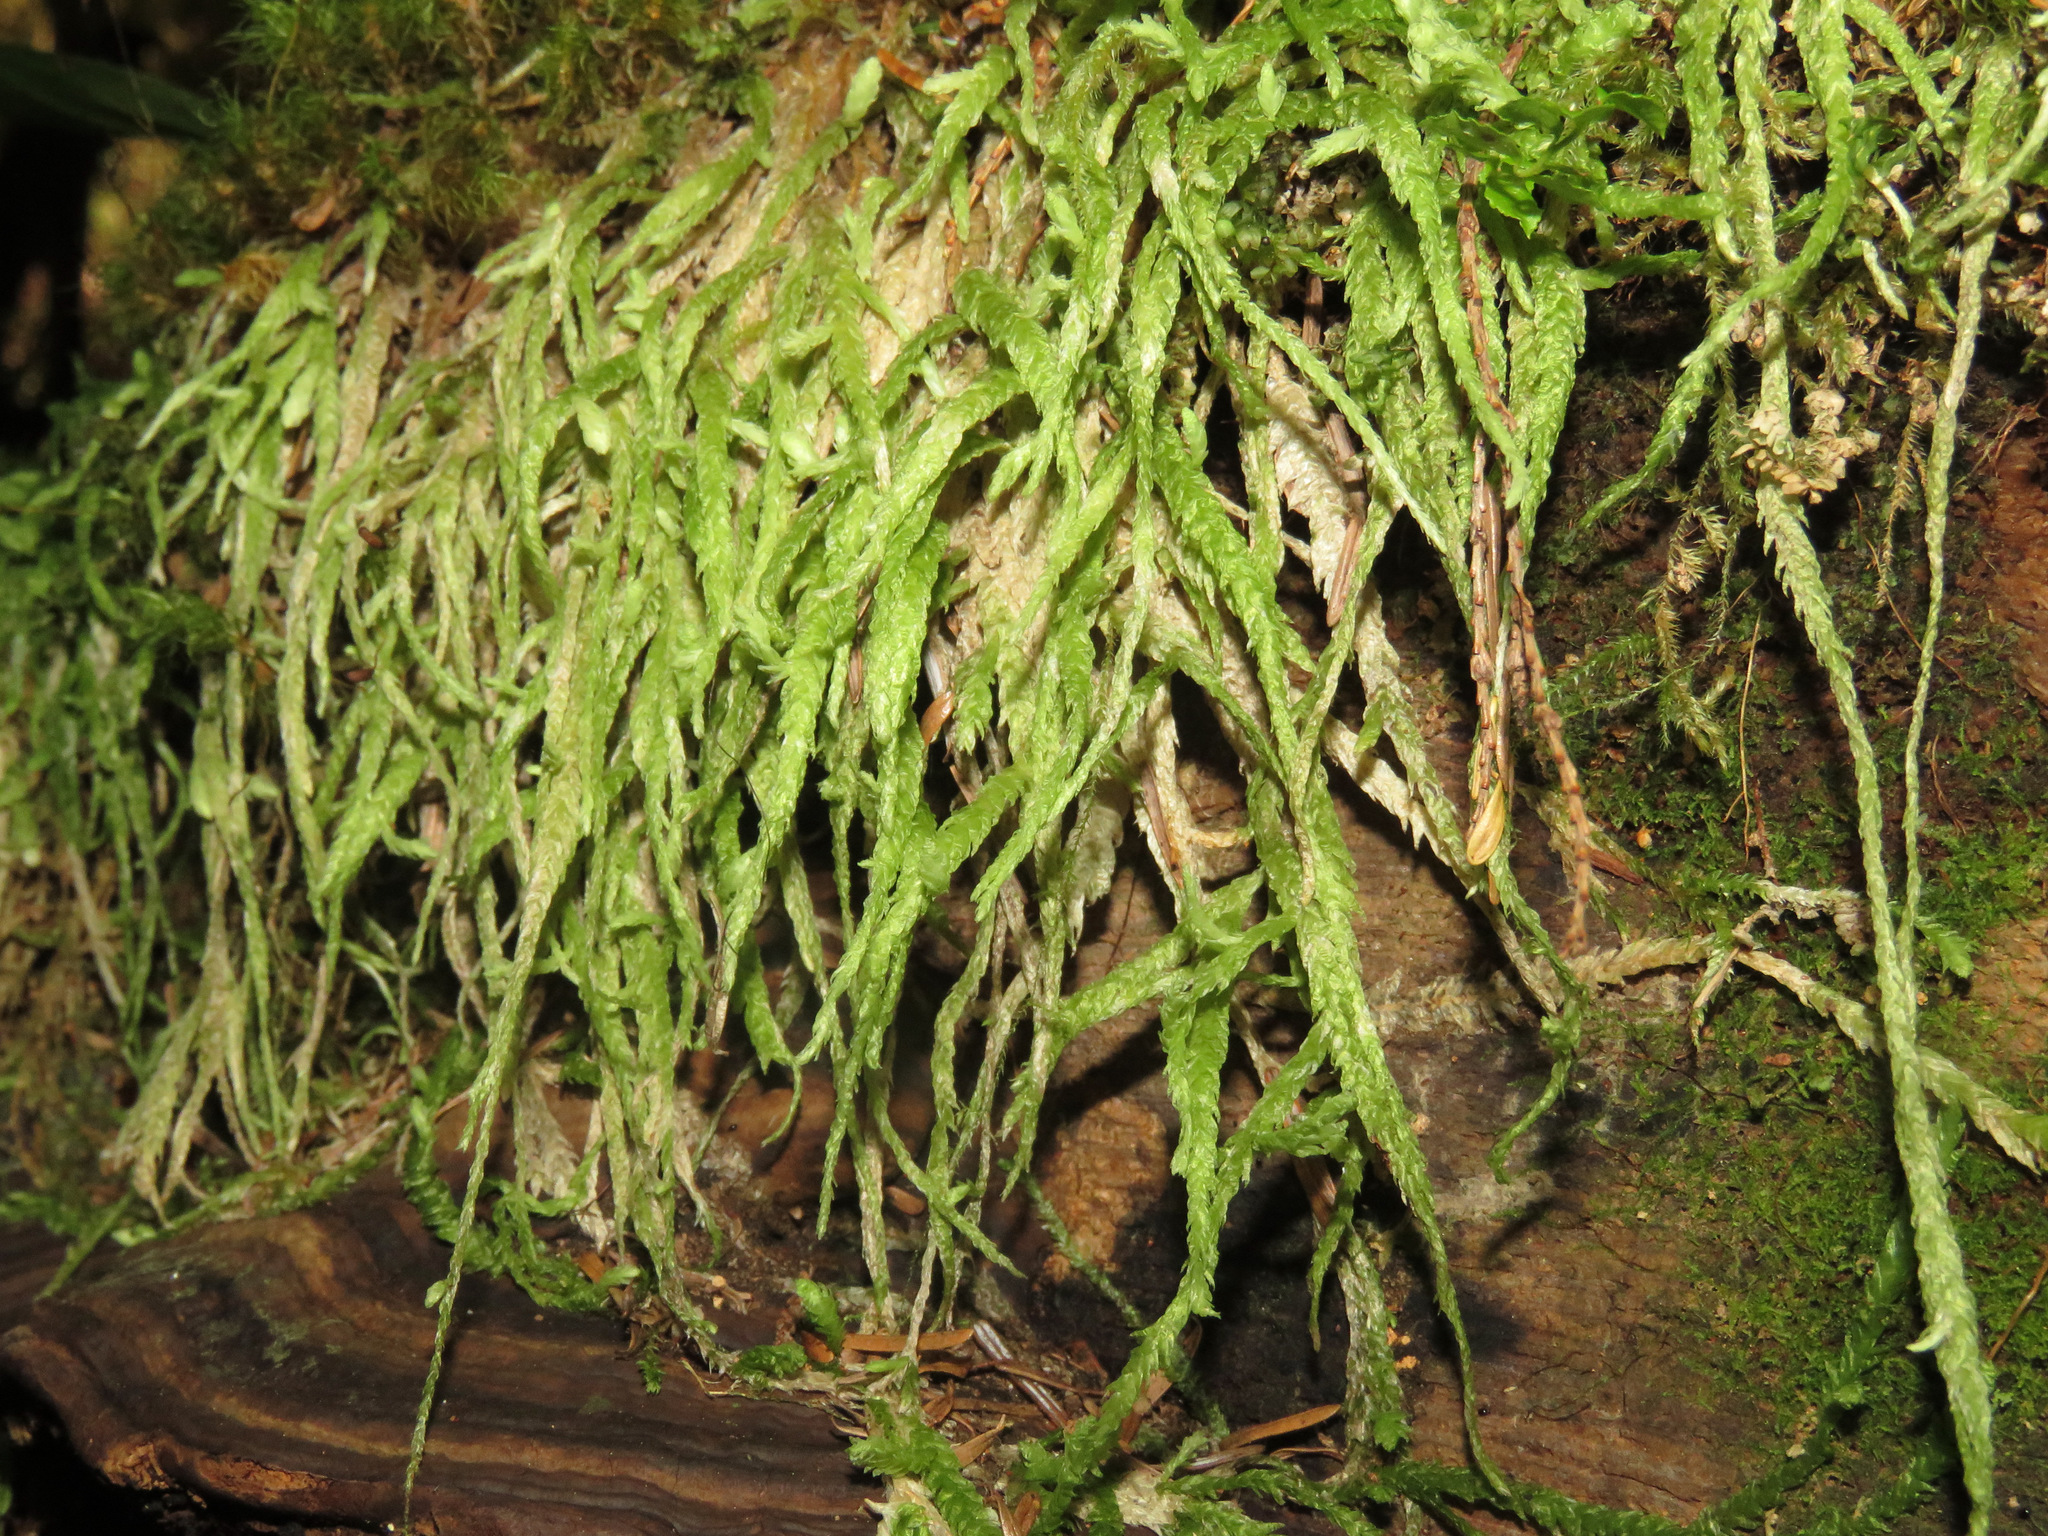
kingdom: Plantae
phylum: Bryophyta
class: Bryopsida
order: Hypnales
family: Plagiotheciaceae
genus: Plagiothecium
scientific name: Plagiothecium undulatum
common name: Waved silk-moss
